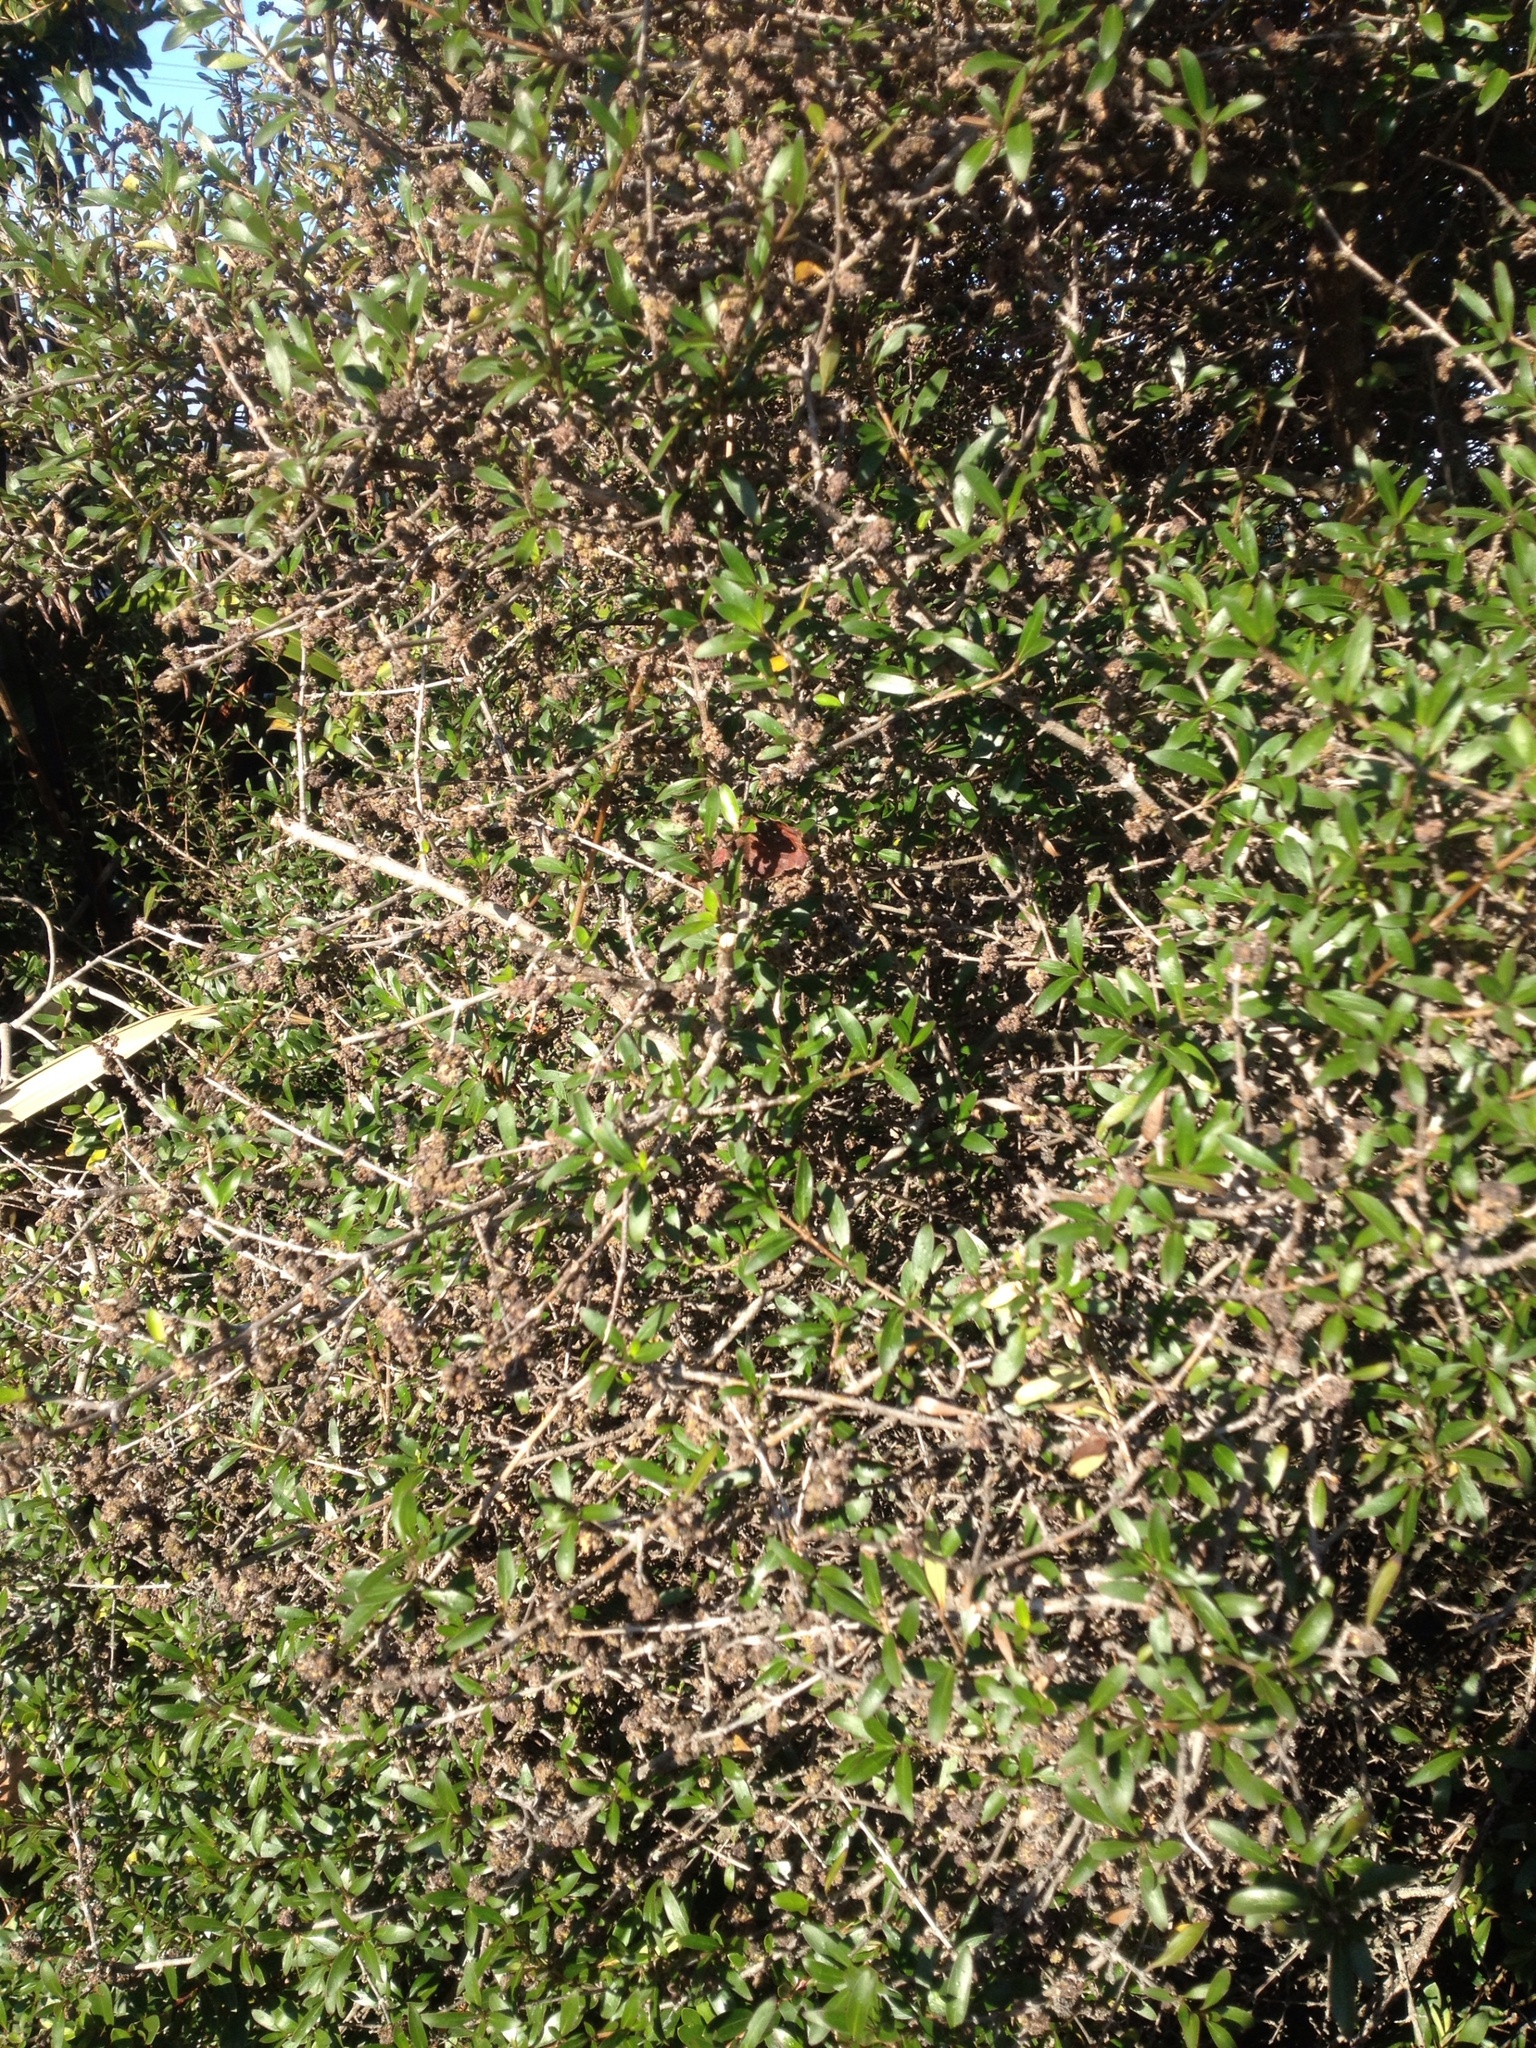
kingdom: Animalia
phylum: Arthropoda
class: Arachnida
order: Trombidiformes
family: Eriophyidae
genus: Acalitus
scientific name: Acalitus
